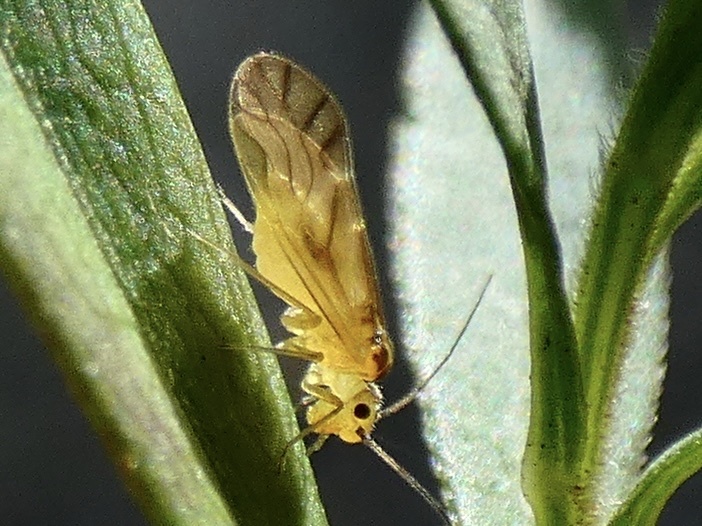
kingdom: Animalia
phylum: Arthropoda
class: Insecta
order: Psocodea
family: Caeciliusidae
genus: Valenzuela
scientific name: Valenzuela flavidus
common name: Yellow barklouse
